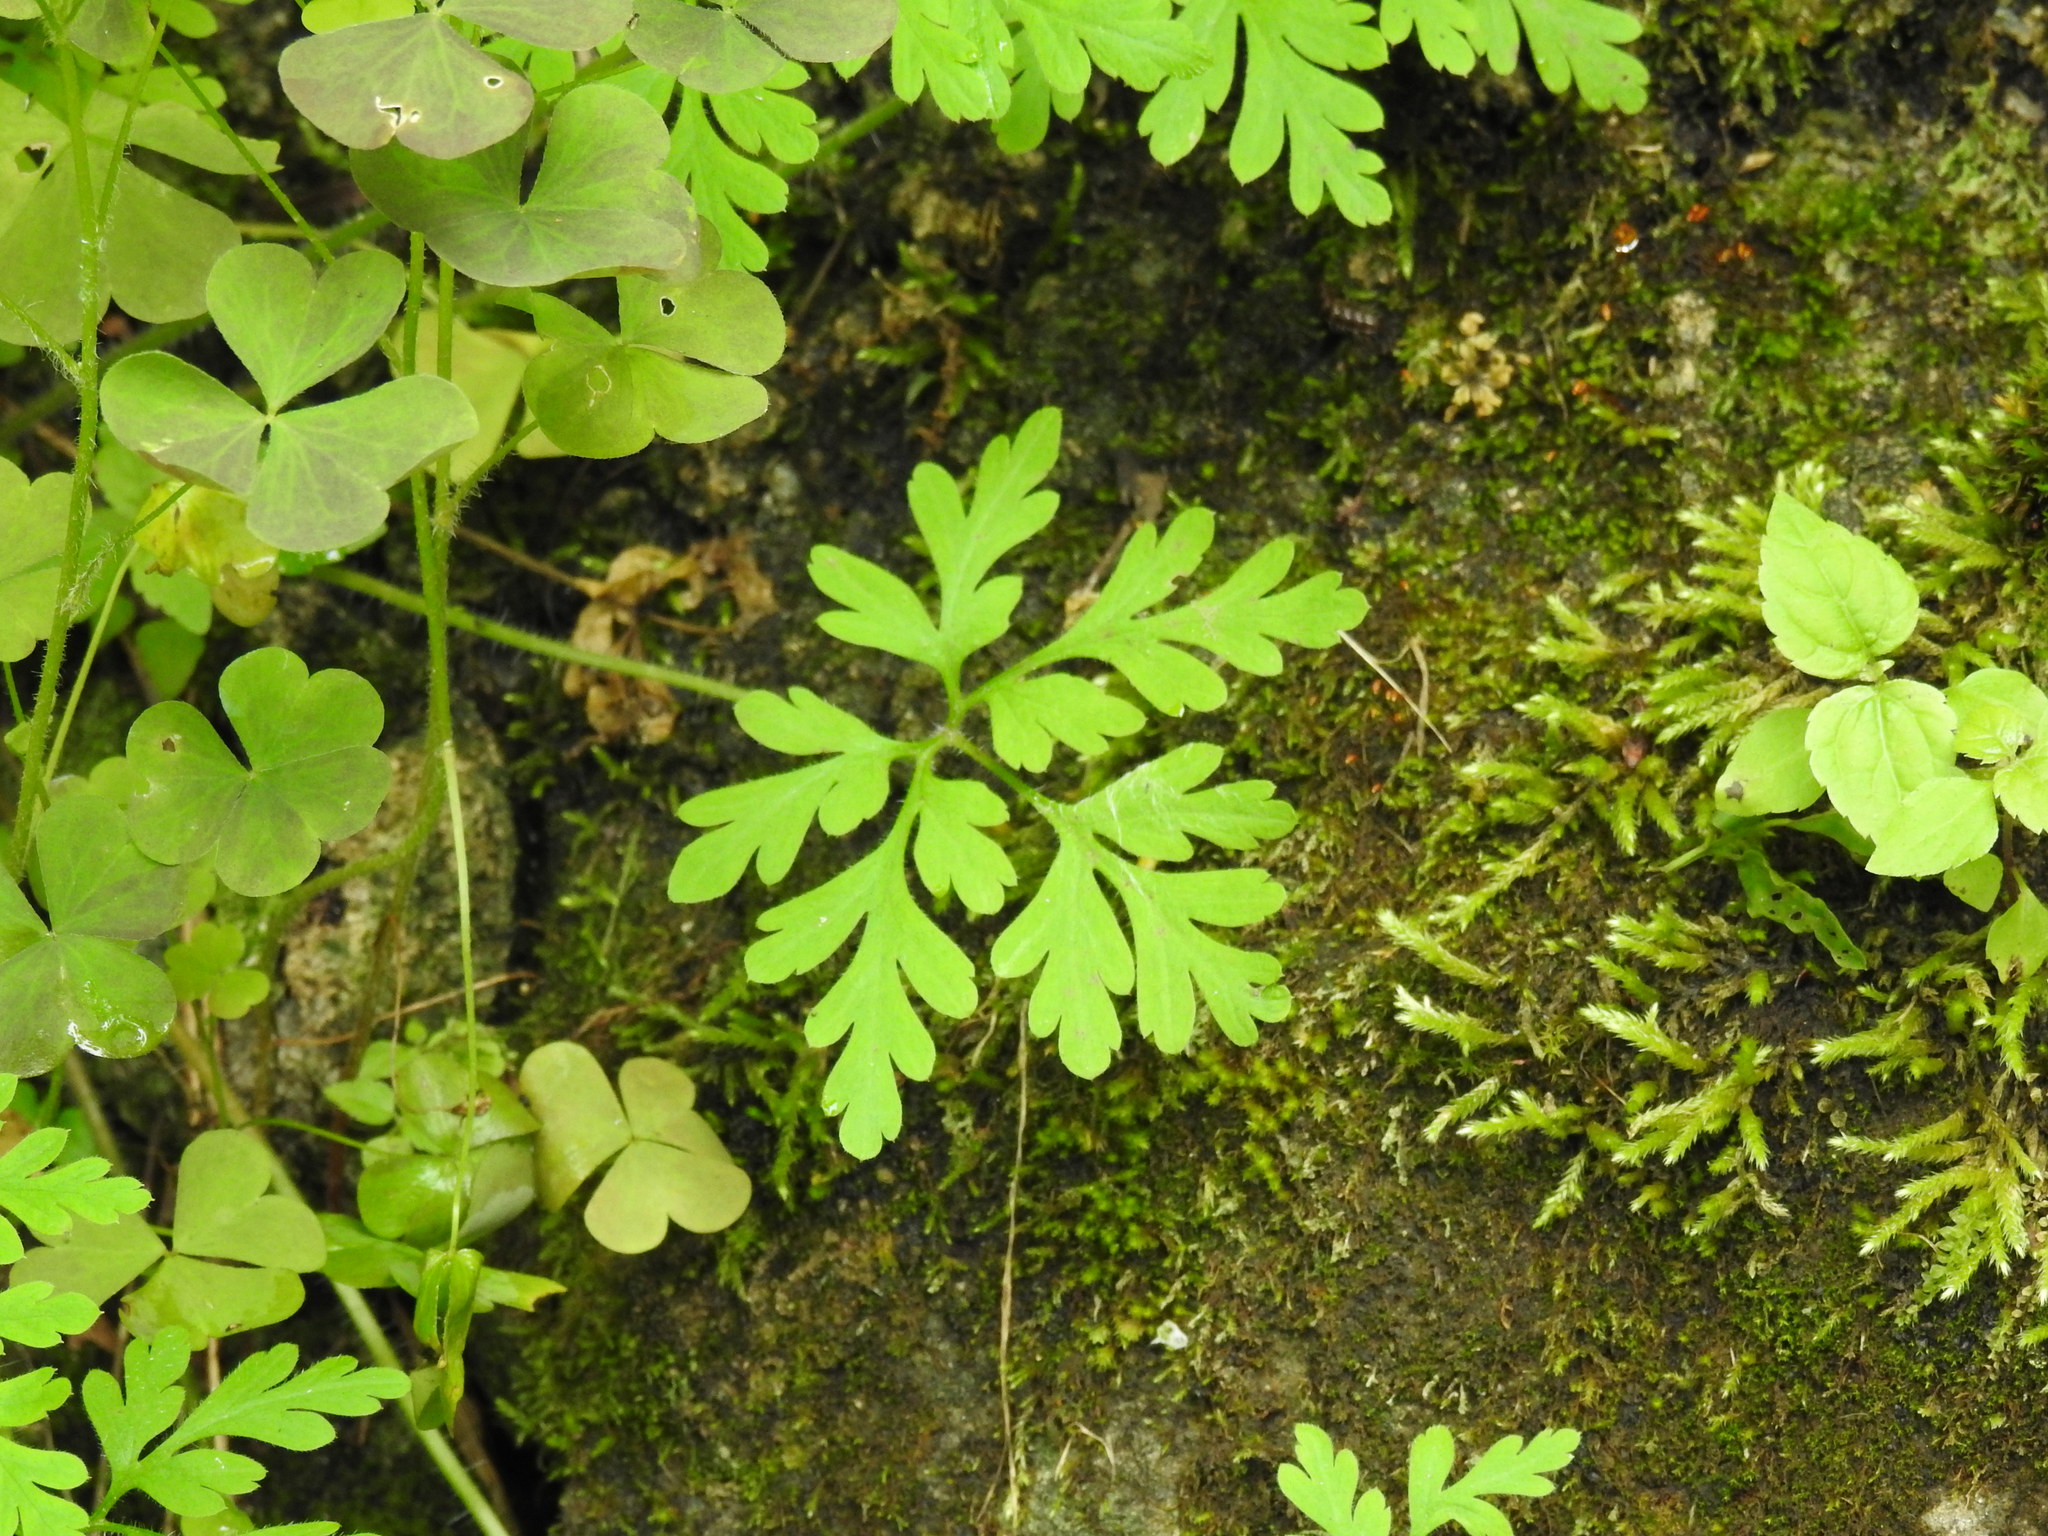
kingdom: Plantae
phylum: Tracheophyta
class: Magnoliopsida
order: Geraniales
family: Geraniaceae
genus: Geranium
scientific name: Geranium robertianum
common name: Herb-robert
